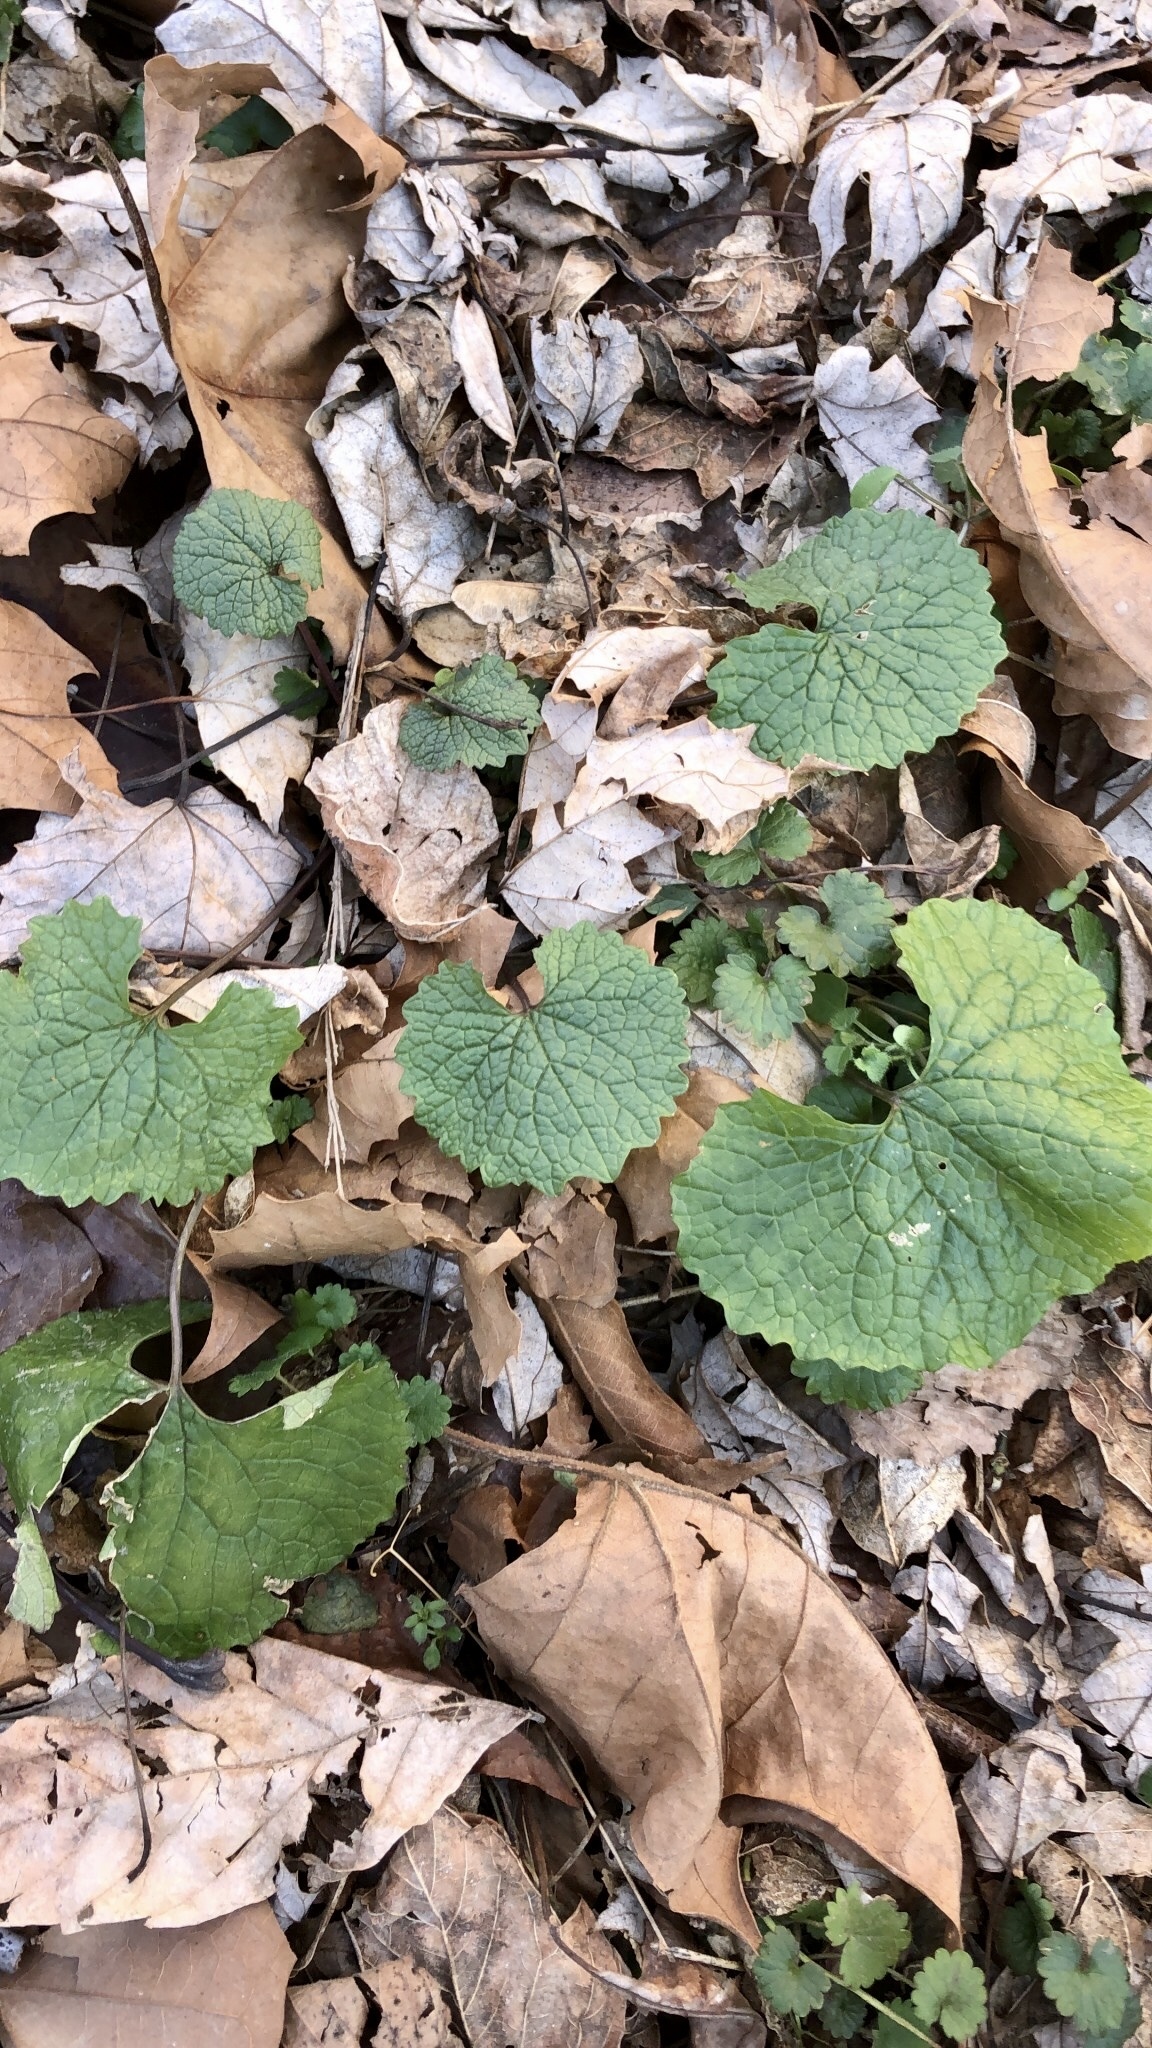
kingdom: Plantae
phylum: Tracheophyta
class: Magnoliopsida
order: Brassicales
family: Brassicaceae
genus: Alliaria
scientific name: Alliaria petiolata
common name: Garlic mustard
